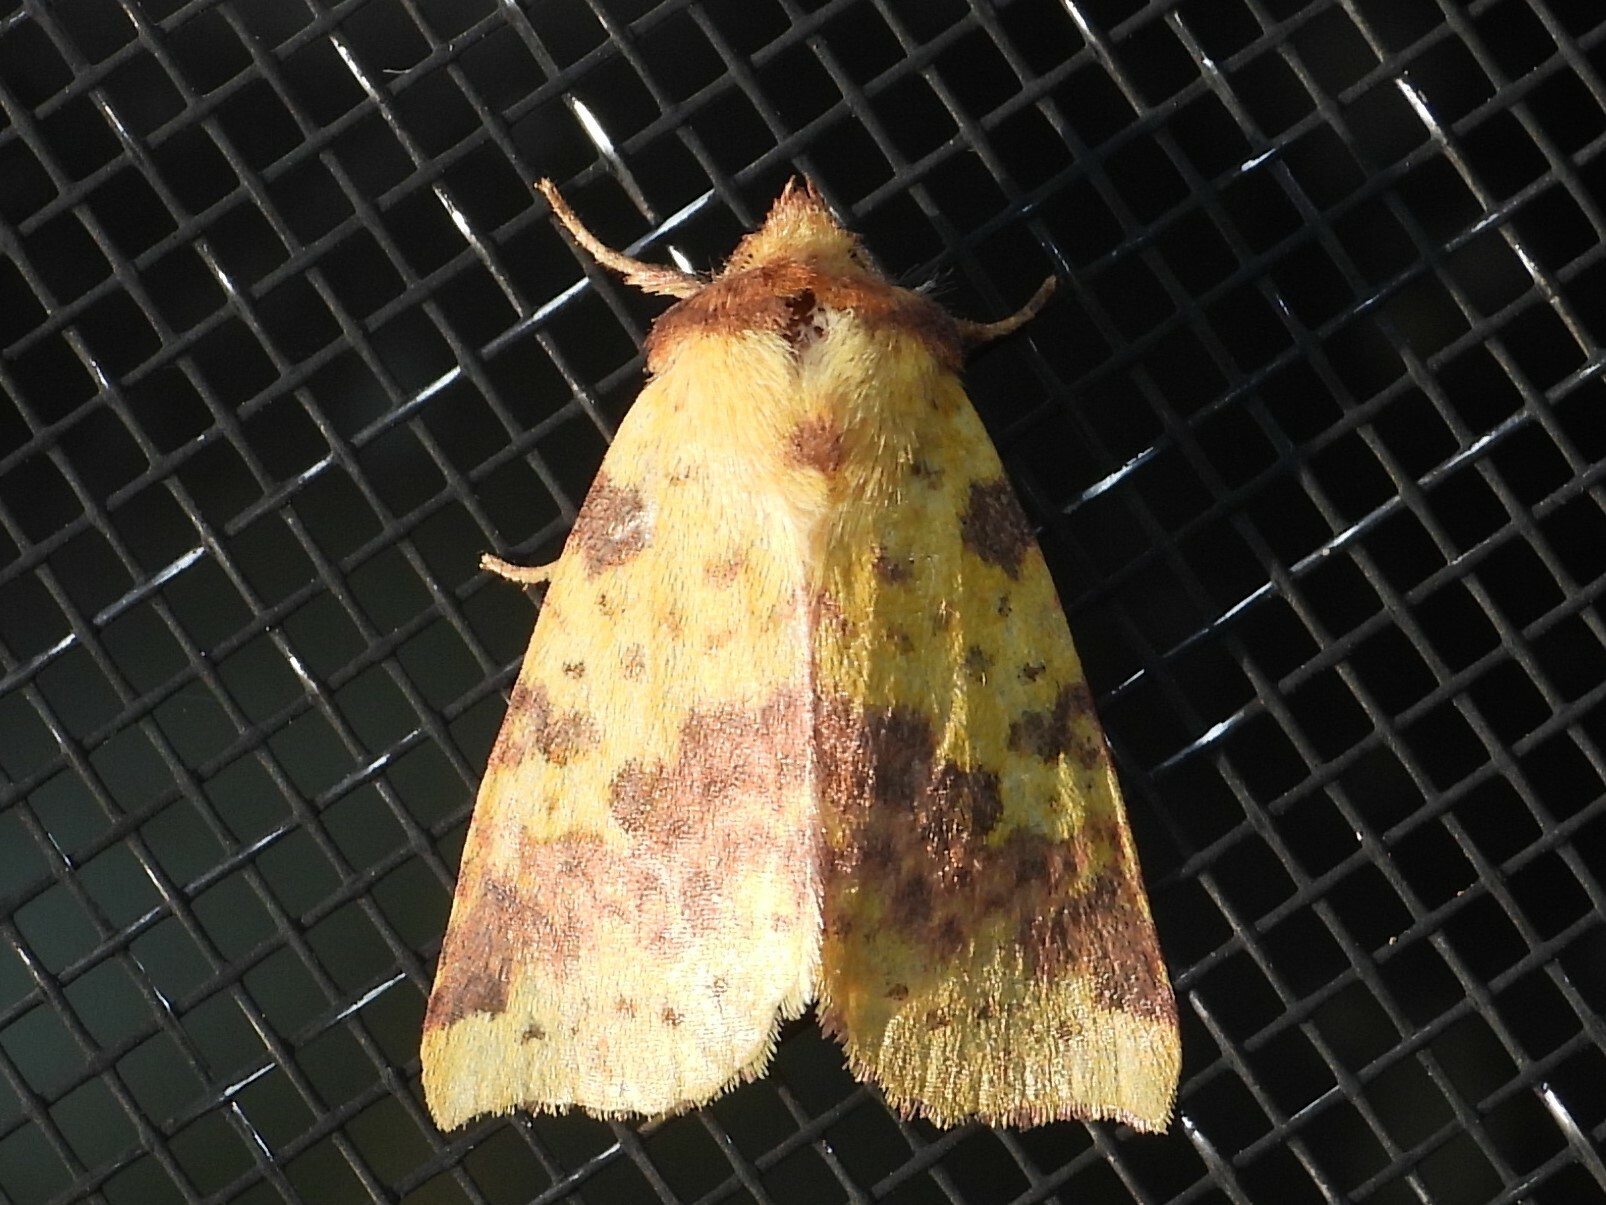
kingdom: Animalia
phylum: Arthropoda
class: Insecta
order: Lepidoptera
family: Noctuidae
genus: Xanthia
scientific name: Xanthia tatago
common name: Pink-banded sallow
